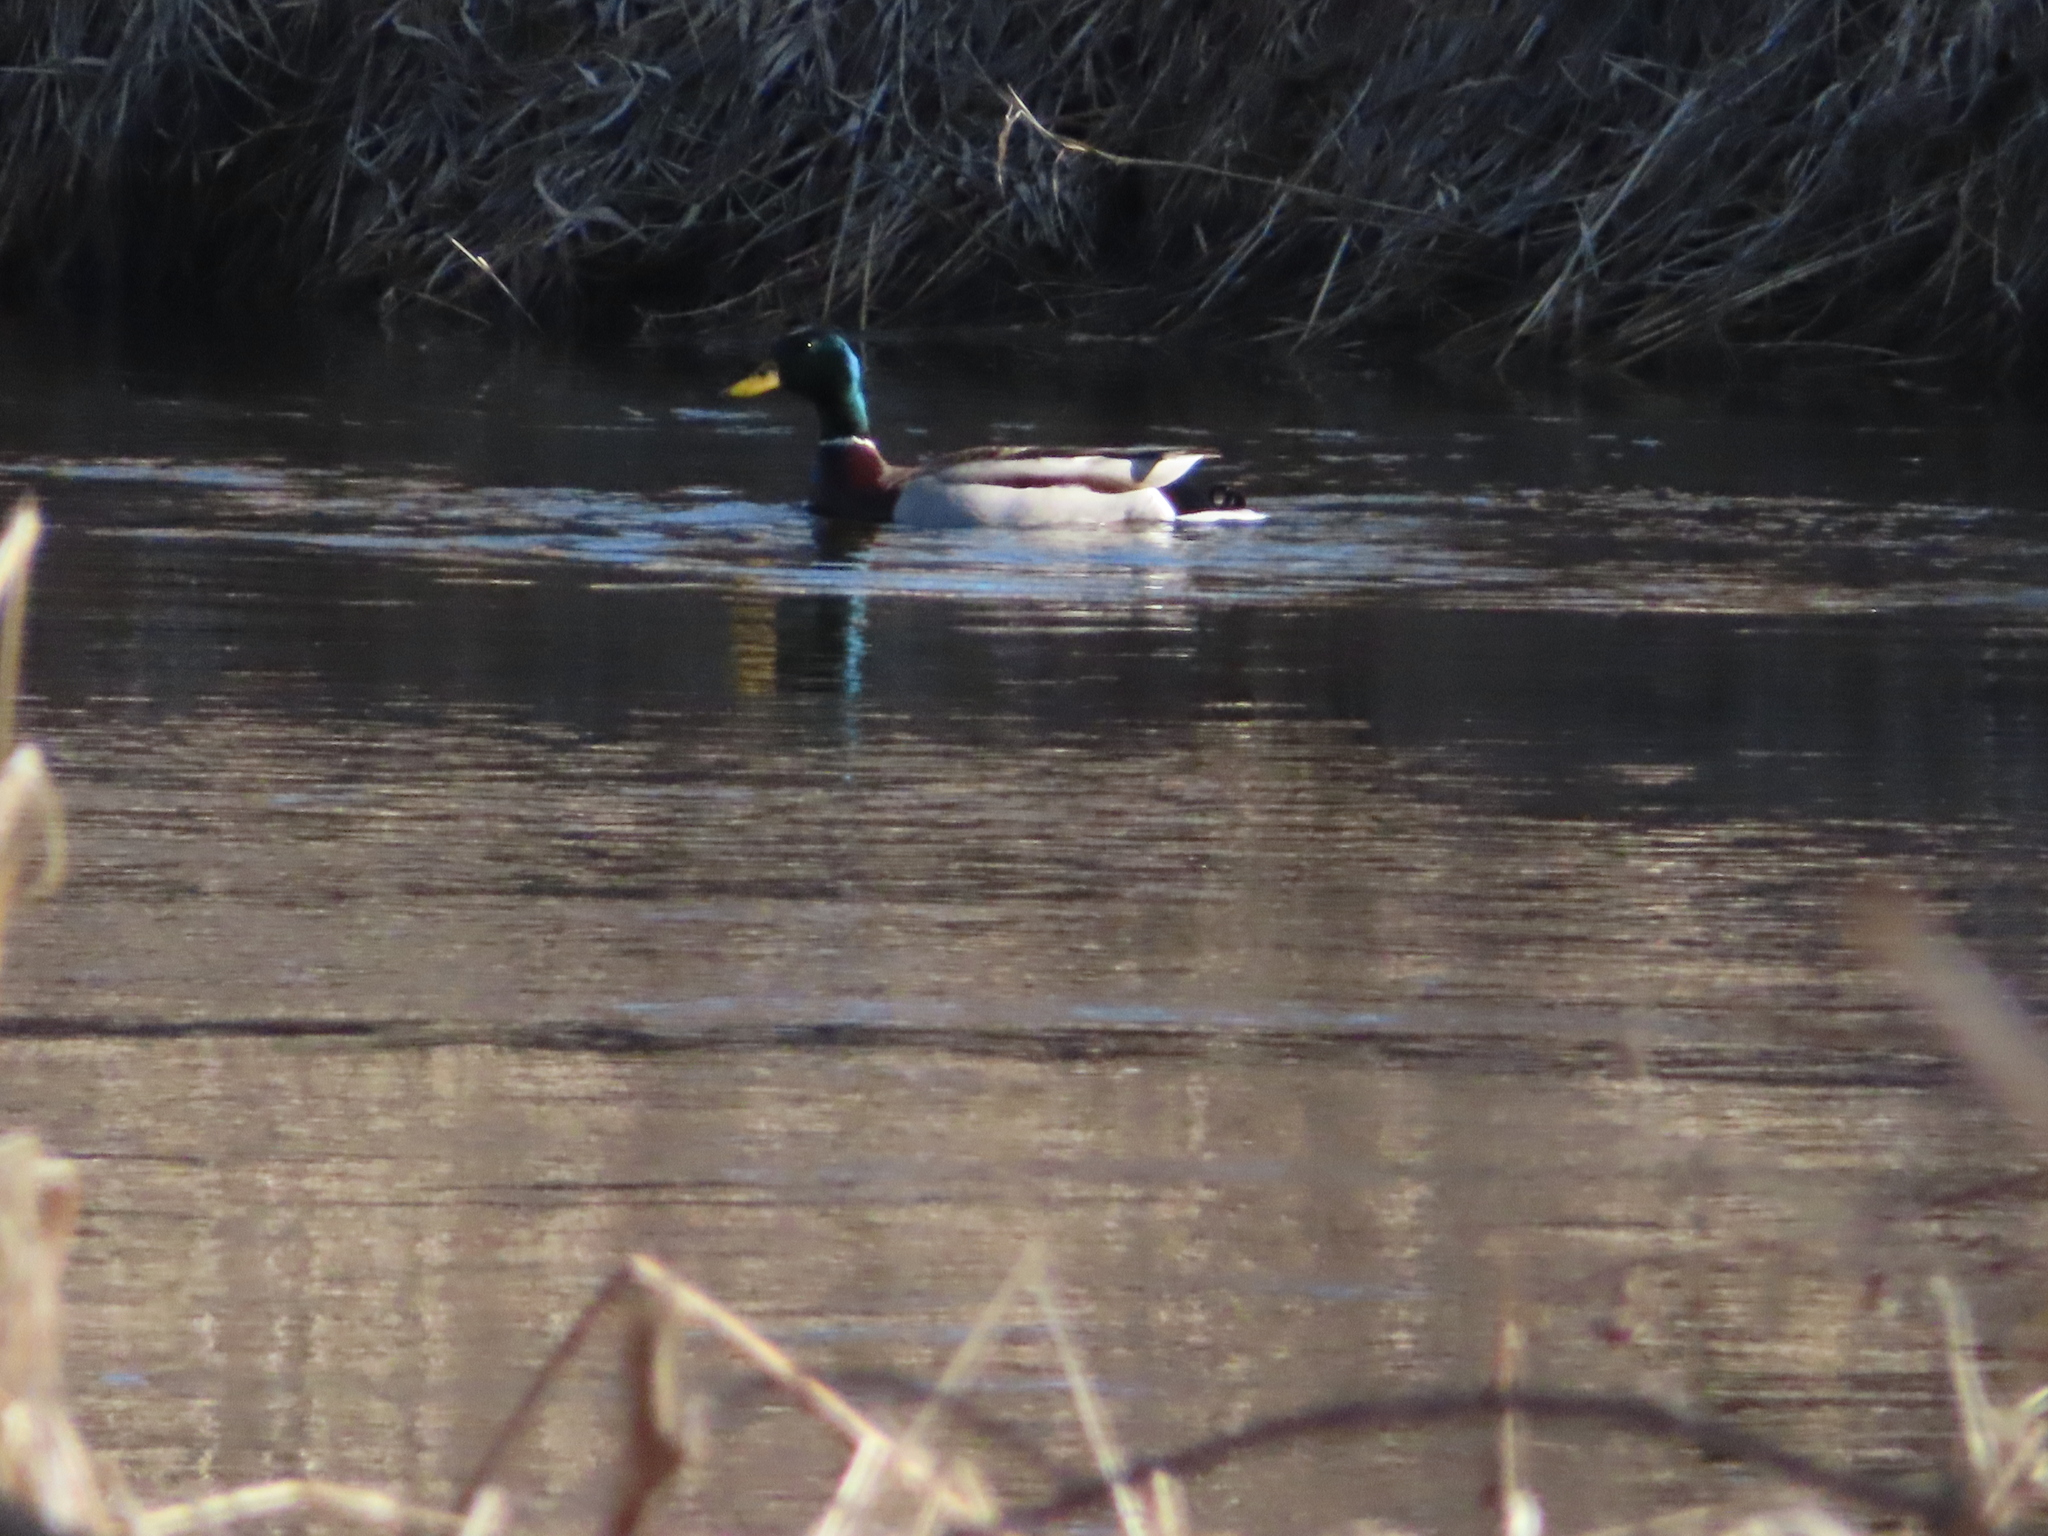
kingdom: Animalia
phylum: Chordata
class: Aves
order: Anseriformes
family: Anatidae
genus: Anas
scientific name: Anas platyrhynchos
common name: Mallard
